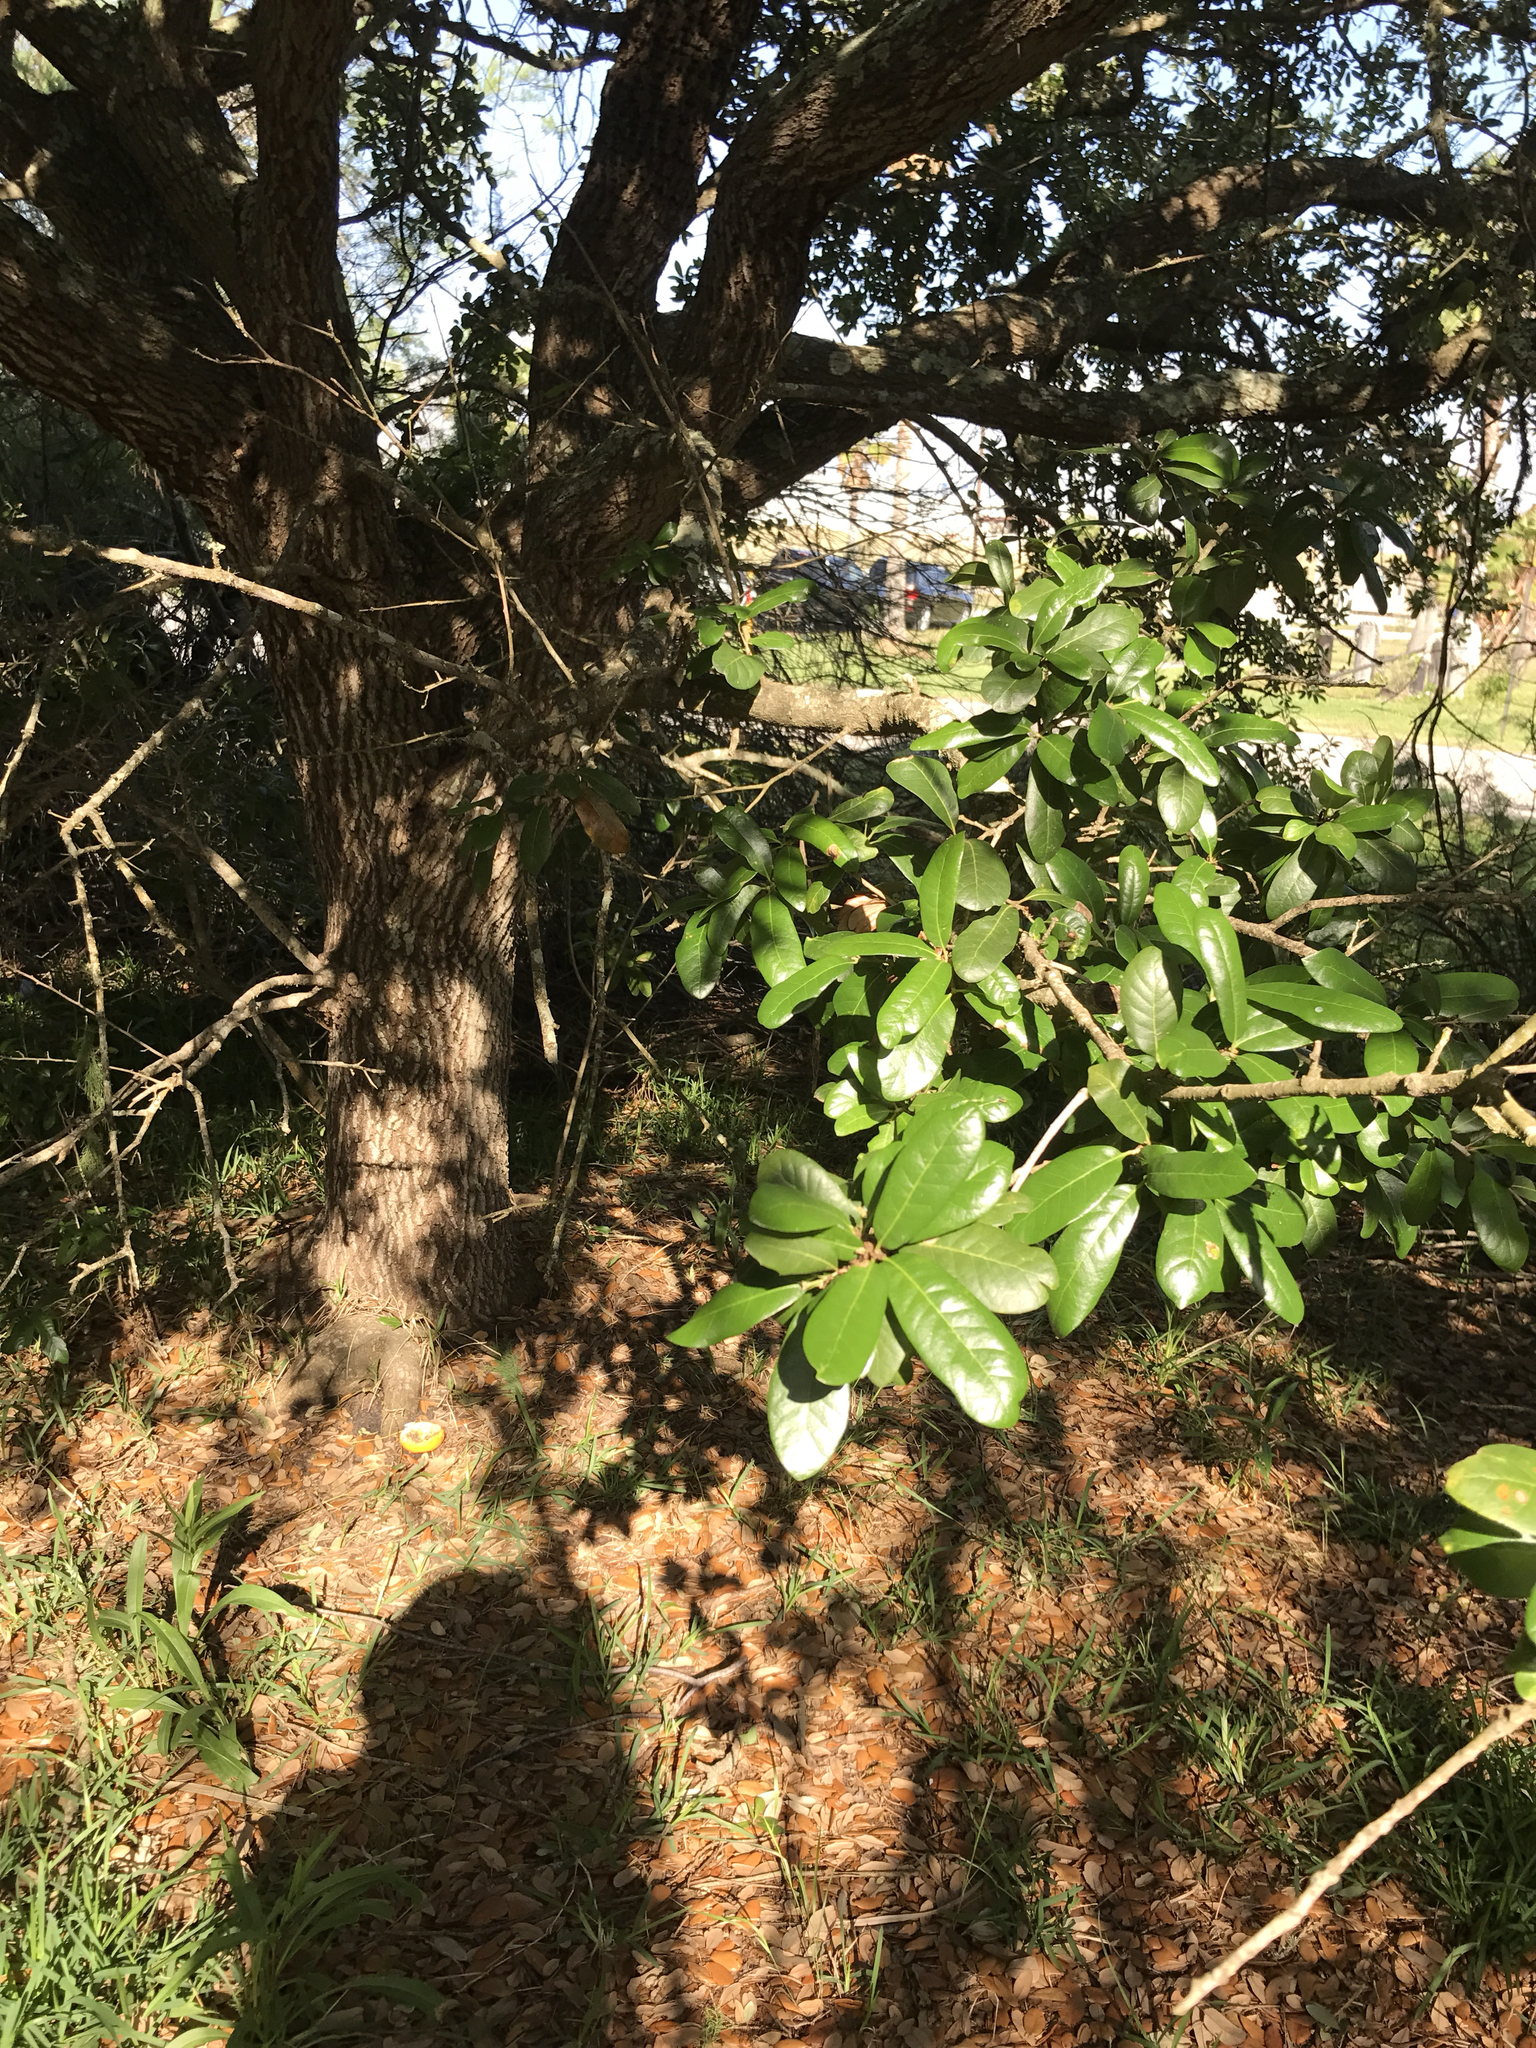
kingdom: Plantae
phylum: Tracheophyta
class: Magnoliopsida
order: Fagales
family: Fagaceae
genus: Quercus
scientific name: Quercus virginiana
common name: Southern live oak
